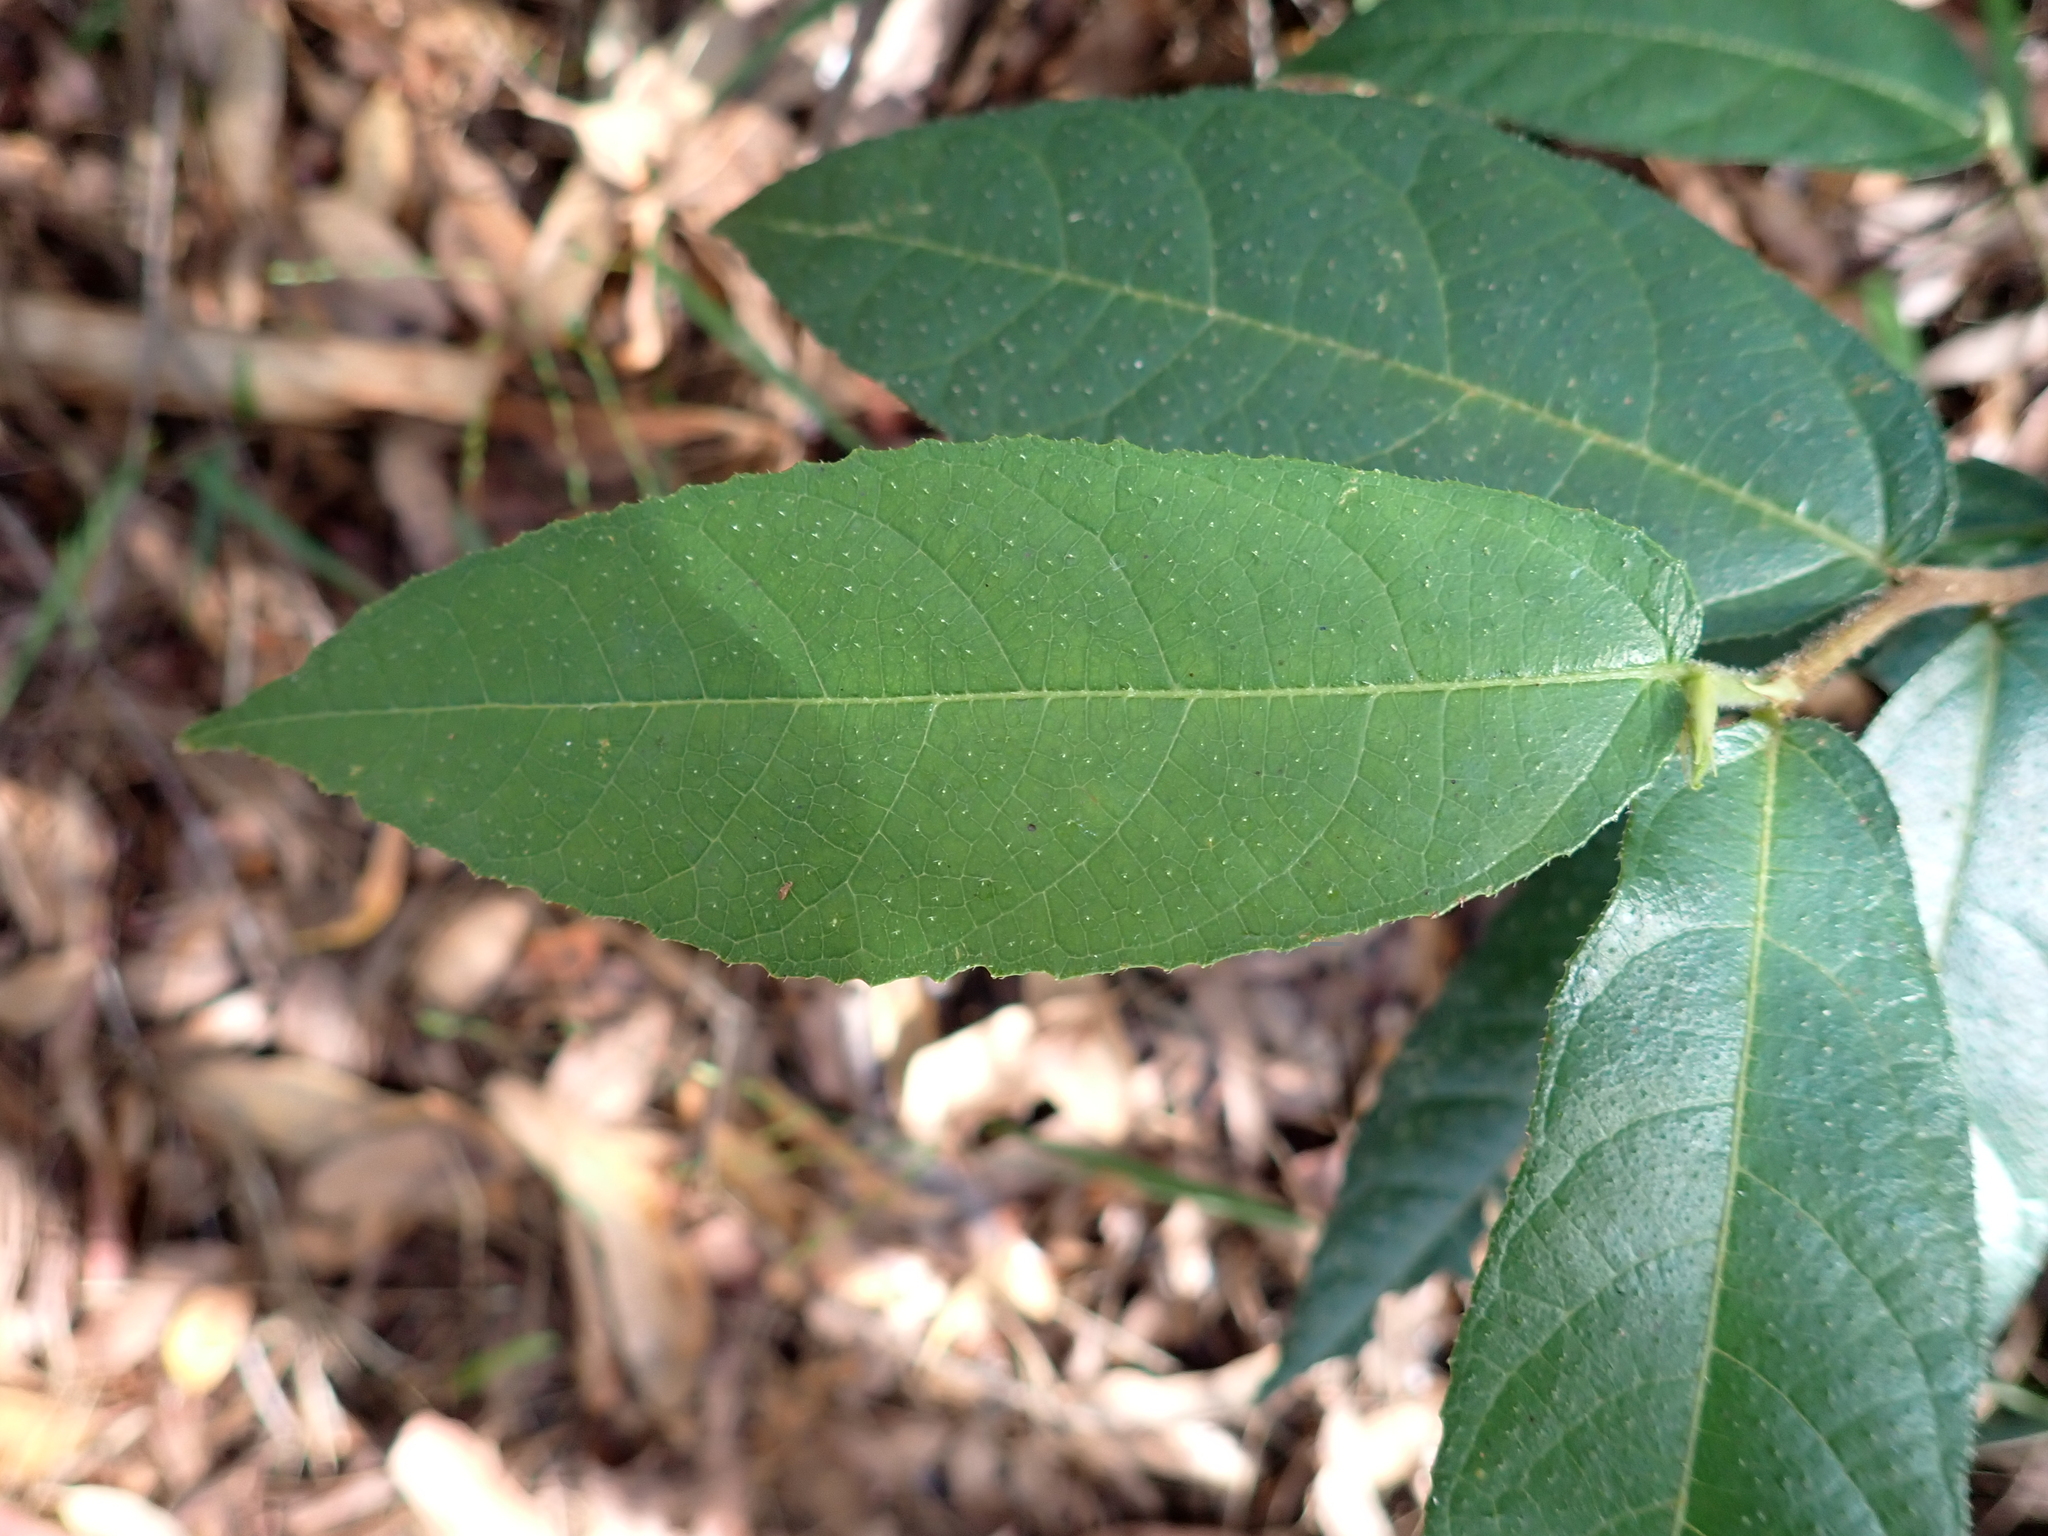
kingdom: Plantae
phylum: Tracheophyta
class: Magnoliopsida
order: Rosales
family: Moraceae
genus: Ficus
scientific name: Ficus coronata
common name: Creek sandpaper fig
